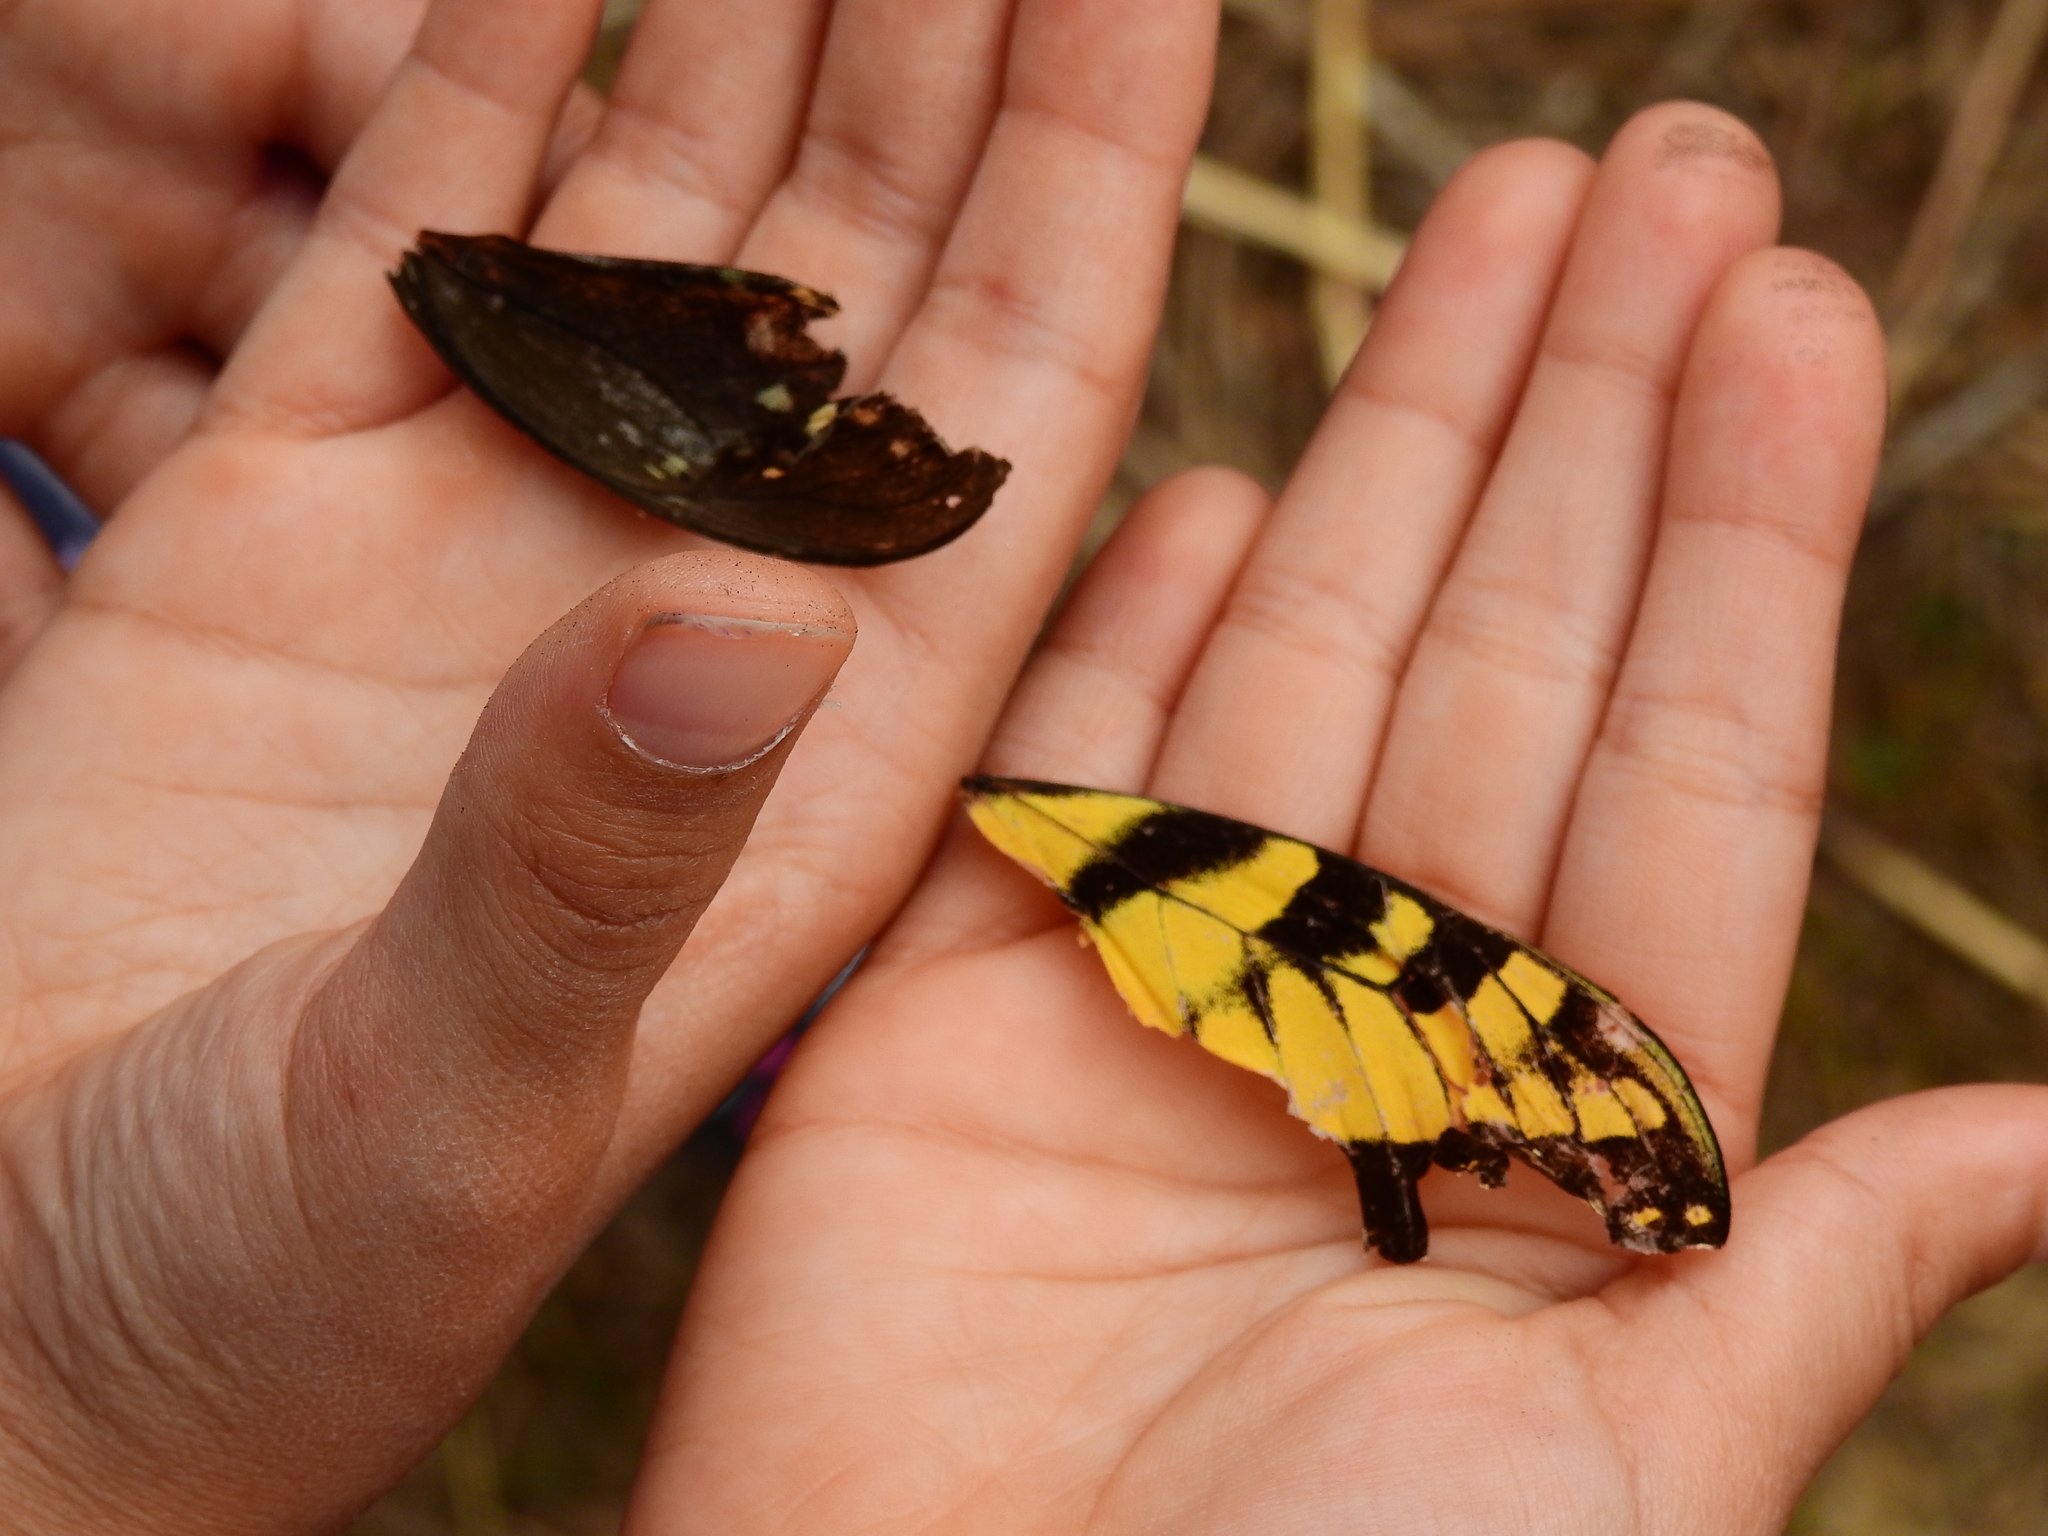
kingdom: Animalia
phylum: Arthropoda
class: Insecta
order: Lepidoptera
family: Papilionidae
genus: Papilio
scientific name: Papilio glaucus
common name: Tiger swallowtail
